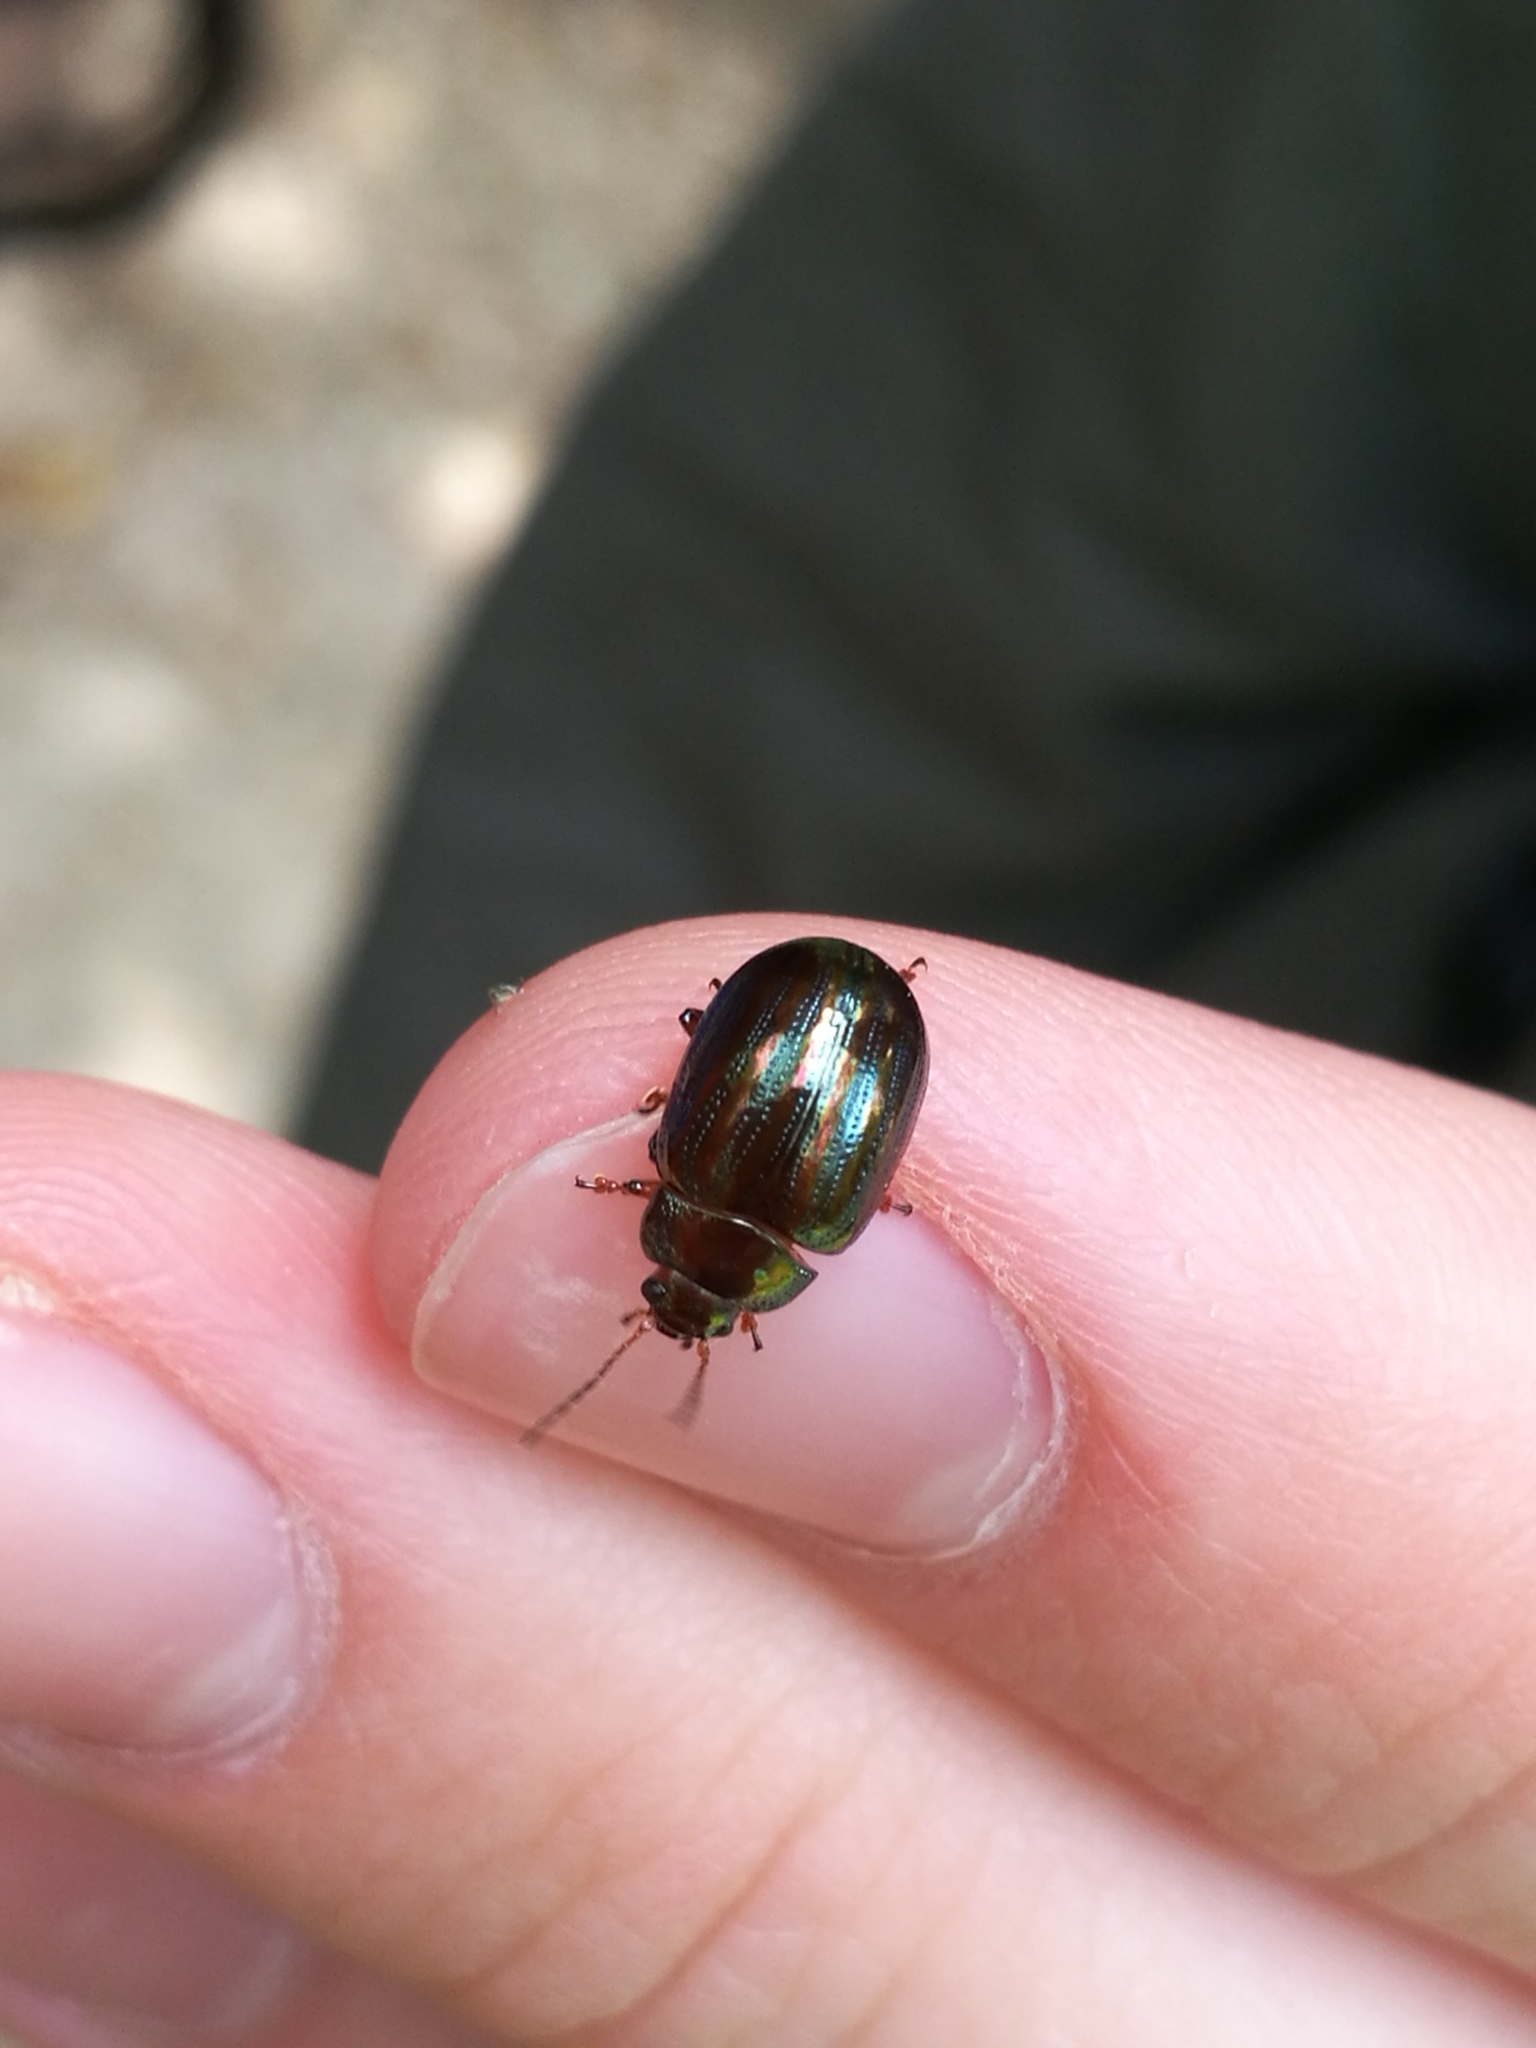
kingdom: Animalia
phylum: Arthropoda
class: Insecta
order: Coleoptera
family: Chrysomelidae
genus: Chrysolina
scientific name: Chrysolina americana
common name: Rosemary beetle
